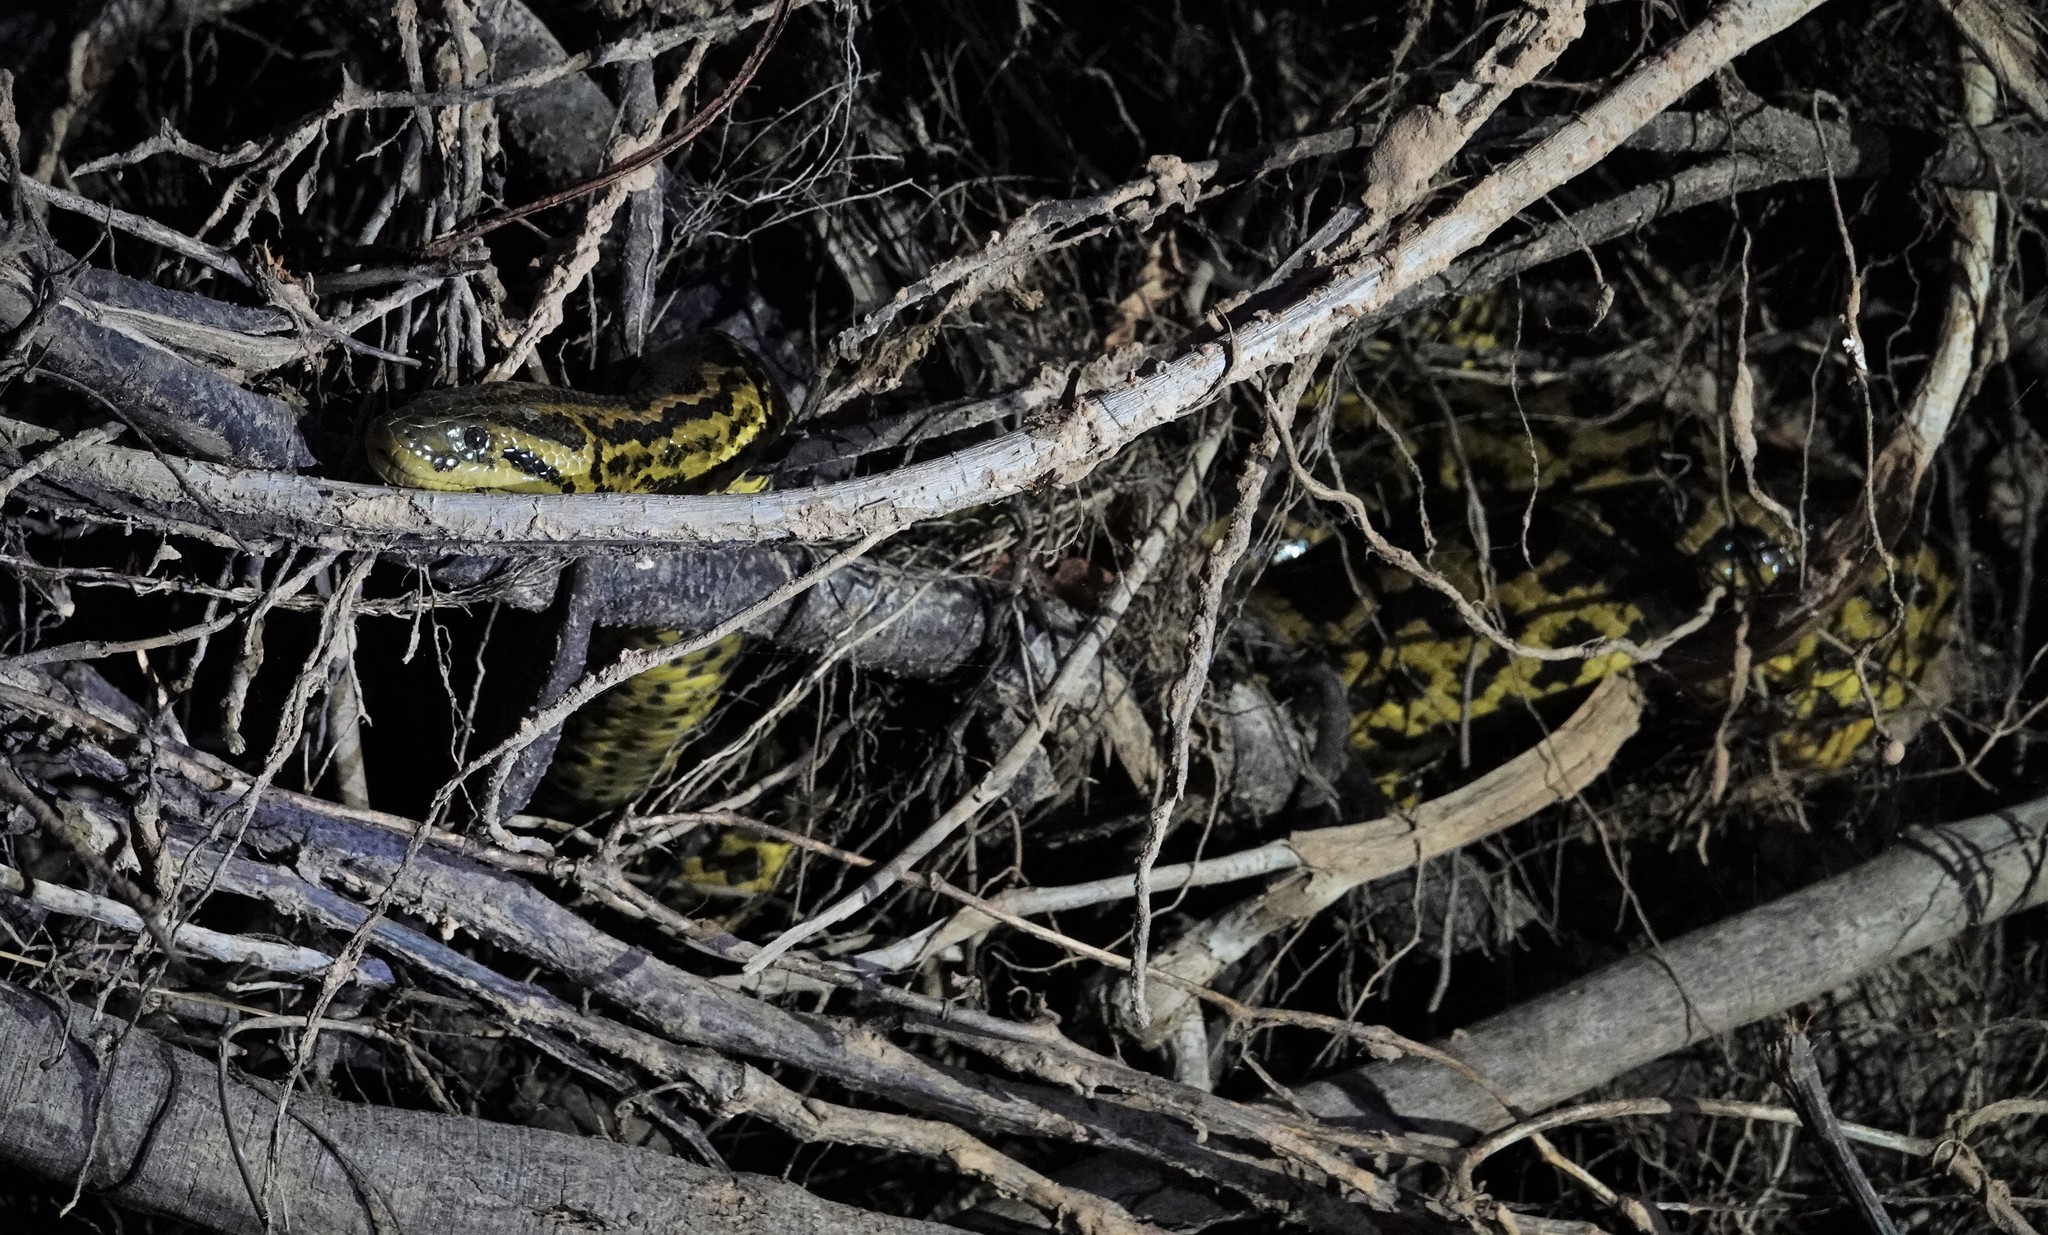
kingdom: Animalia
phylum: Chordata
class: Squamata
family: Boidae
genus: Eunectes
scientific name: Eunectes notaeus
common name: Yellow anaconda
